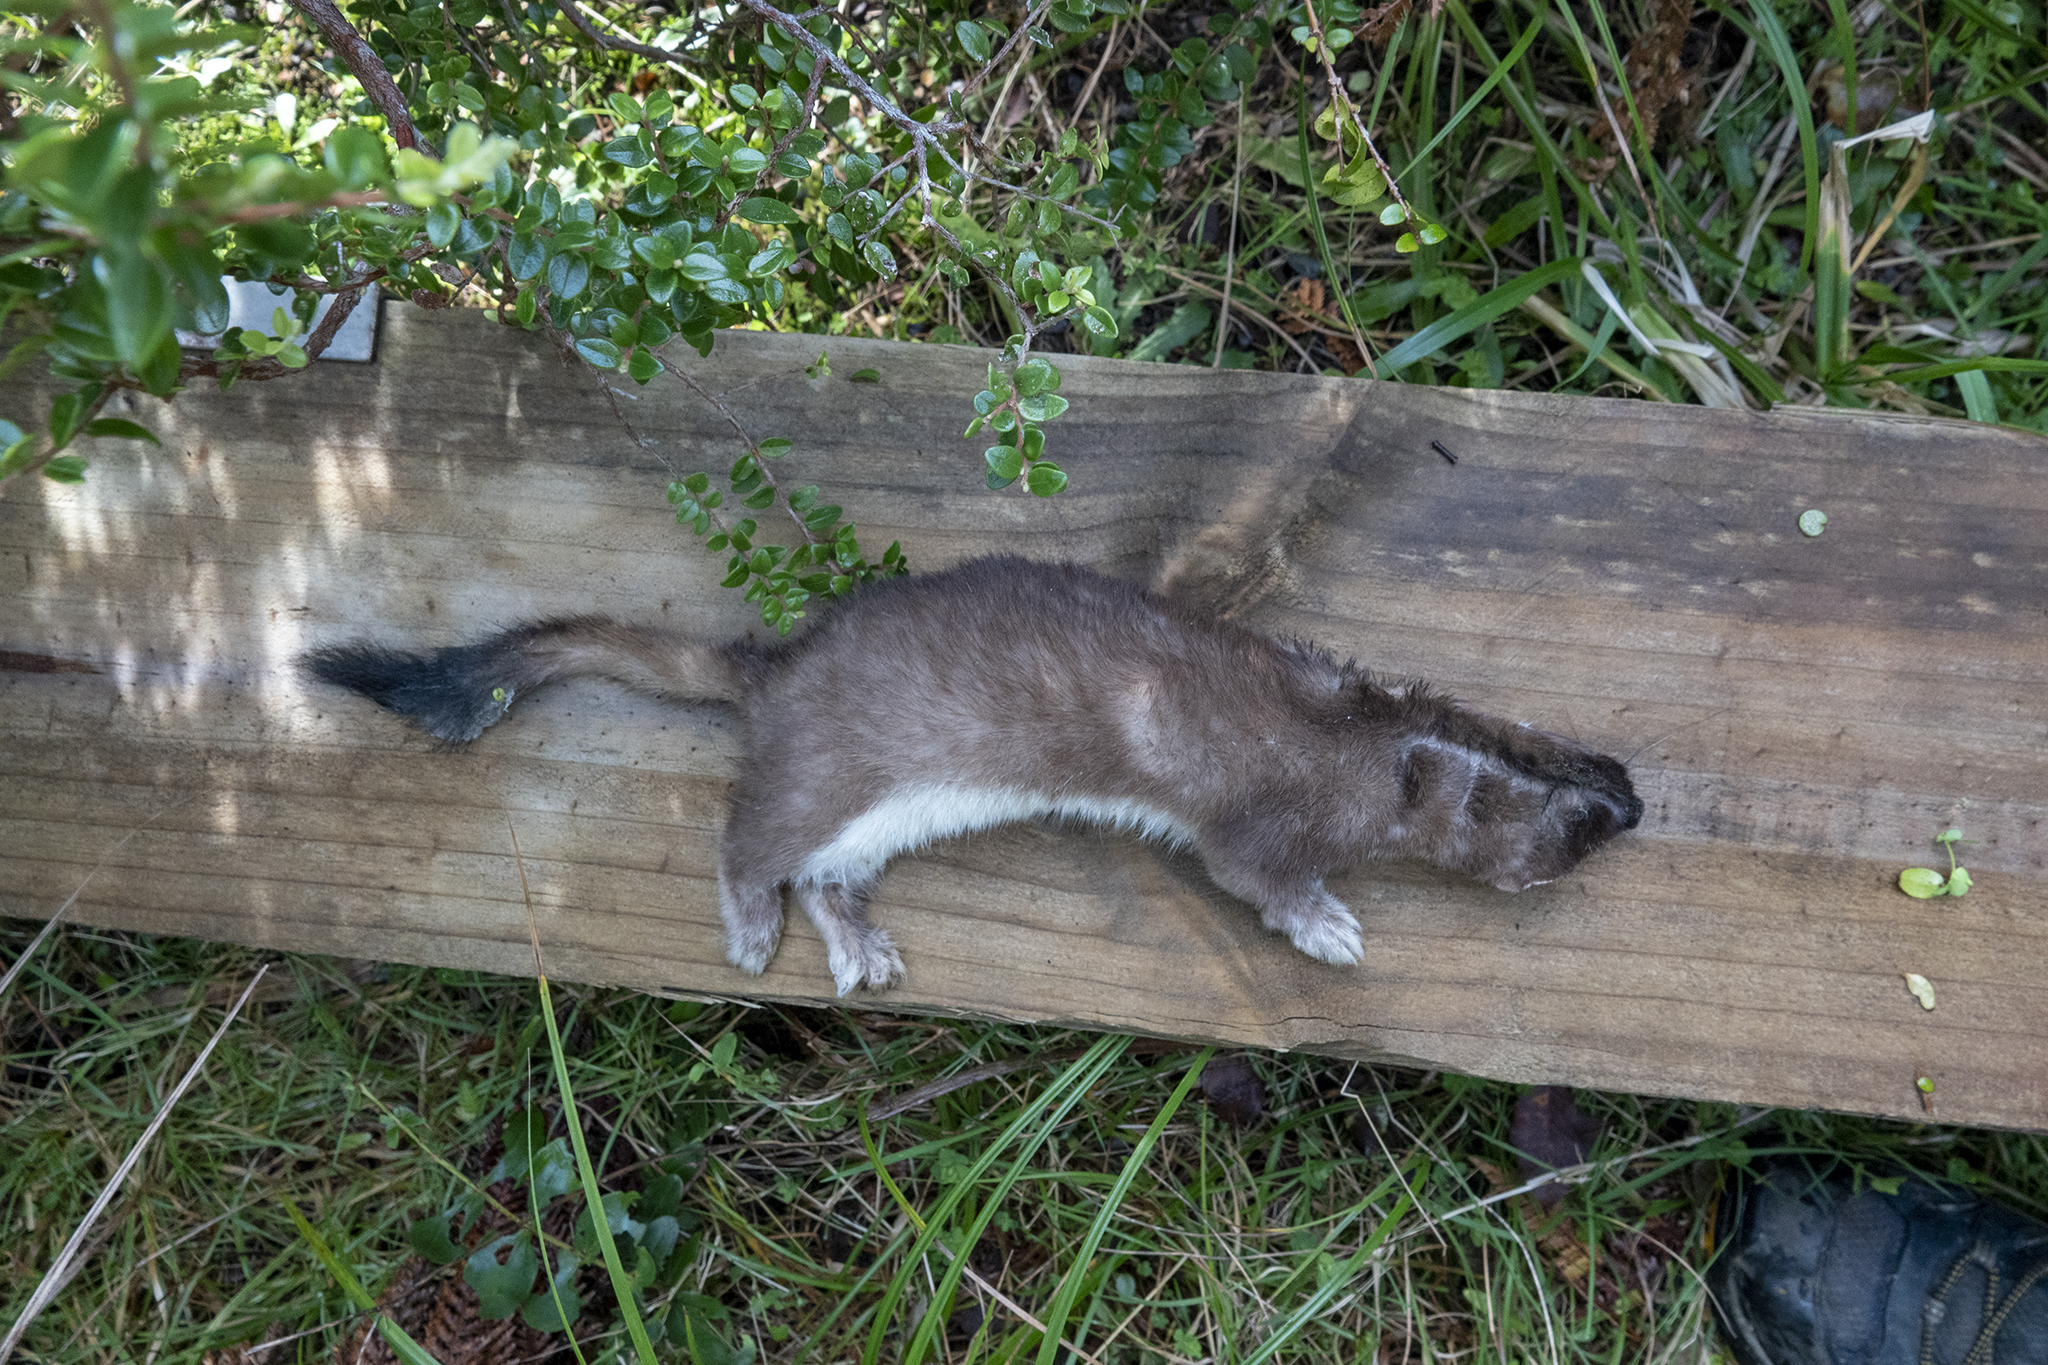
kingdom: Animalia
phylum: Chordata
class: Mammalia
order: Carnivora
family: Mustelidae
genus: Mustela
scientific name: Mustela erminea
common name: Stoat
